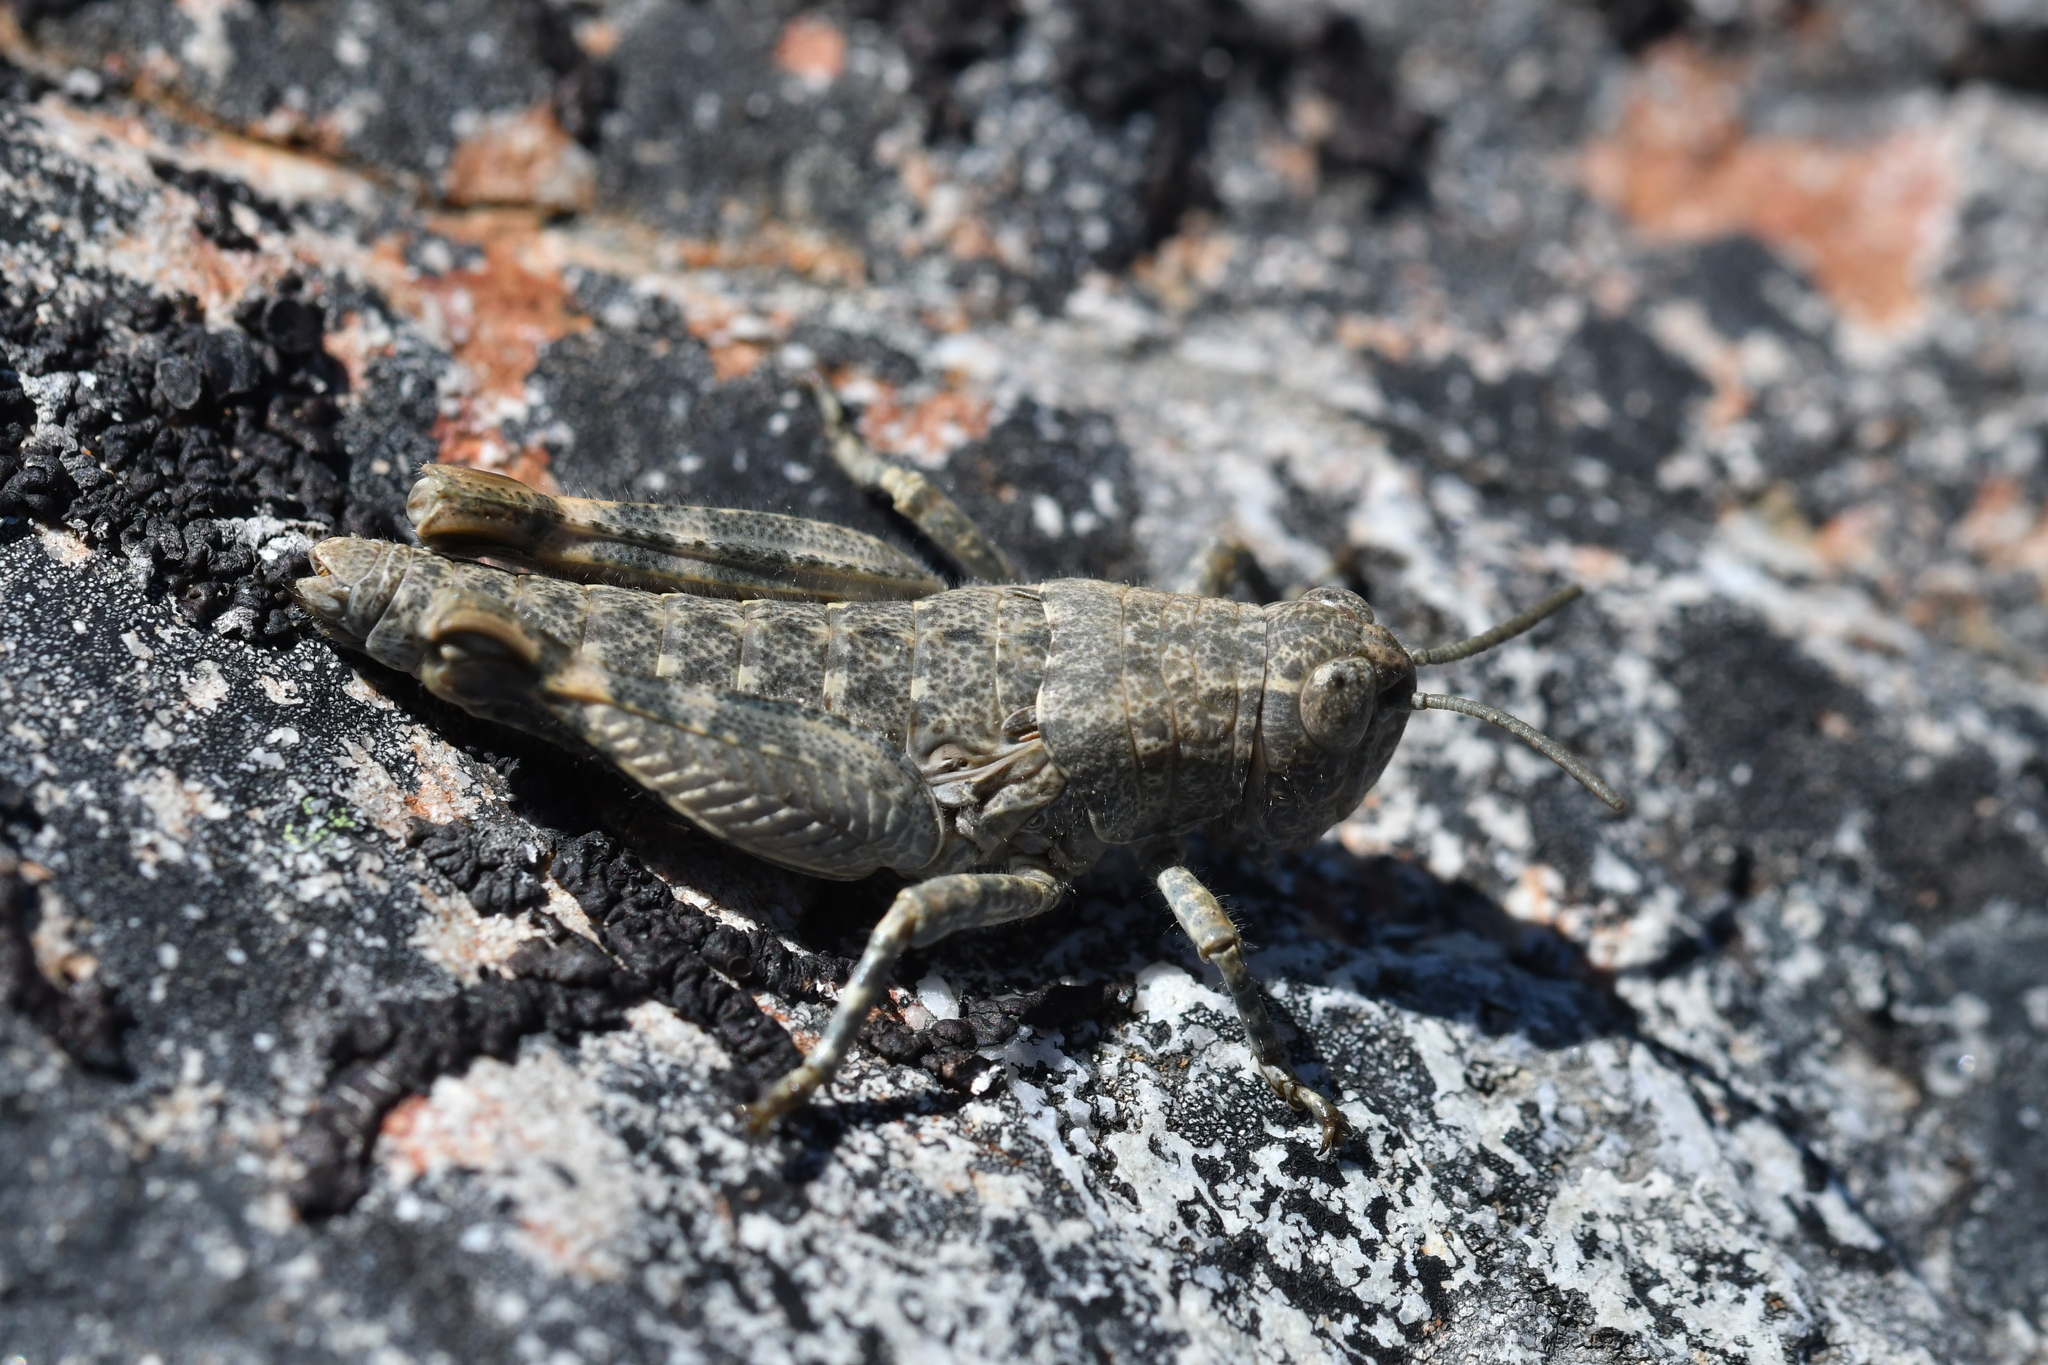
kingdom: Animalia
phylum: Arthropoda
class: Insecta
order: Orthoptera
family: Acrididae
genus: Sigaus
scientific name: Sigaus
